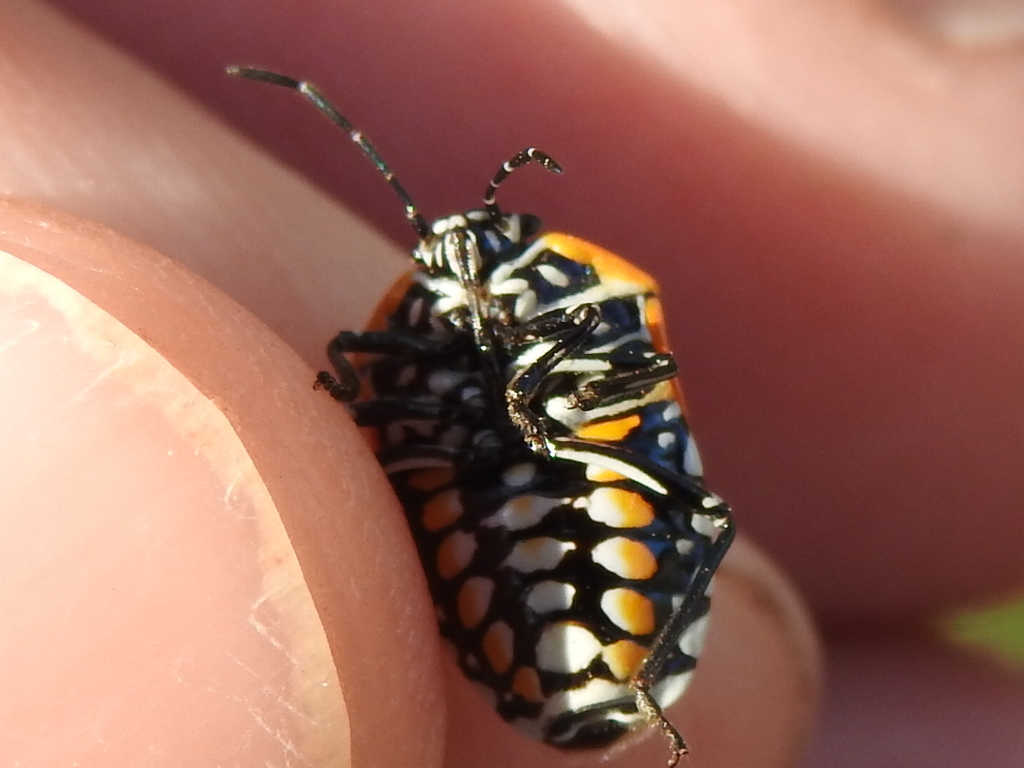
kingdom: Animalia
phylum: Arthropoda
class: Insecta
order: Hemiptera
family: Pentatomidae
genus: Murgantia
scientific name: Murgantia histrionica
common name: Harlequin bug
